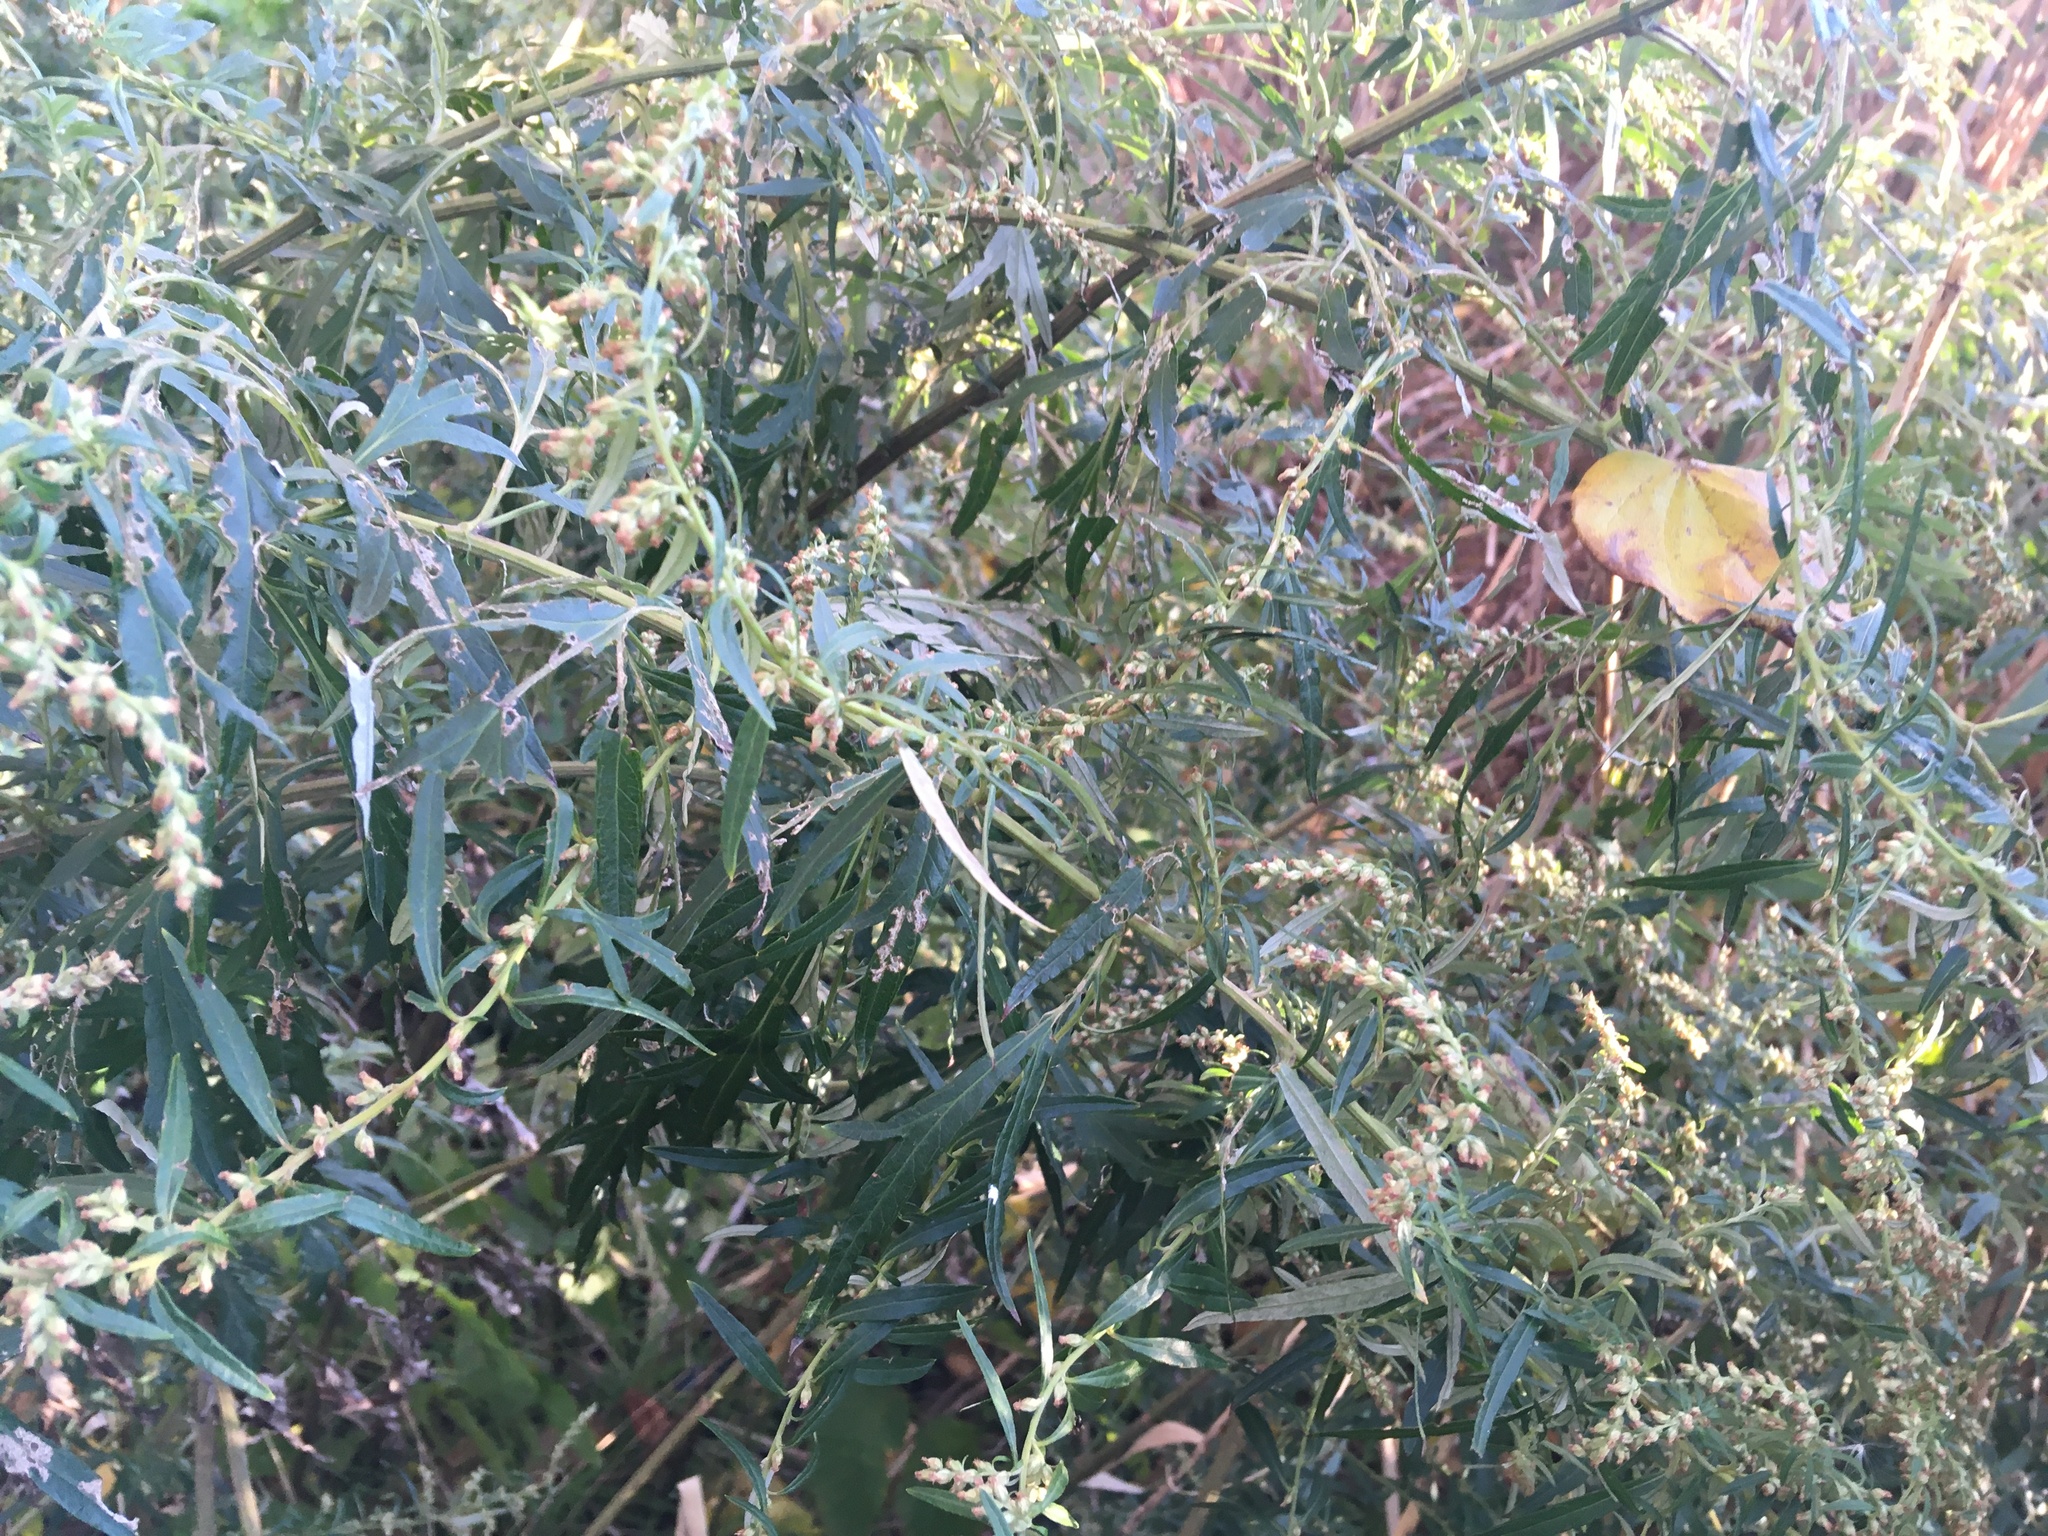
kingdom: Plantae
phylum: Tracheophyta
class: Magnoliopsida
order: Asterales
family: Asteraceae
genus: Artemisia
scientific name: Artemisia vulgaris
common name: Mugwort
